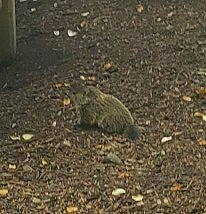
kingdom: Animalia
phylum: Chordata
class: Mammalia
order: Rodentia
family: Sciuridae
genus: Marmota
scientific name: Marmota monax
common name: Groundhog
